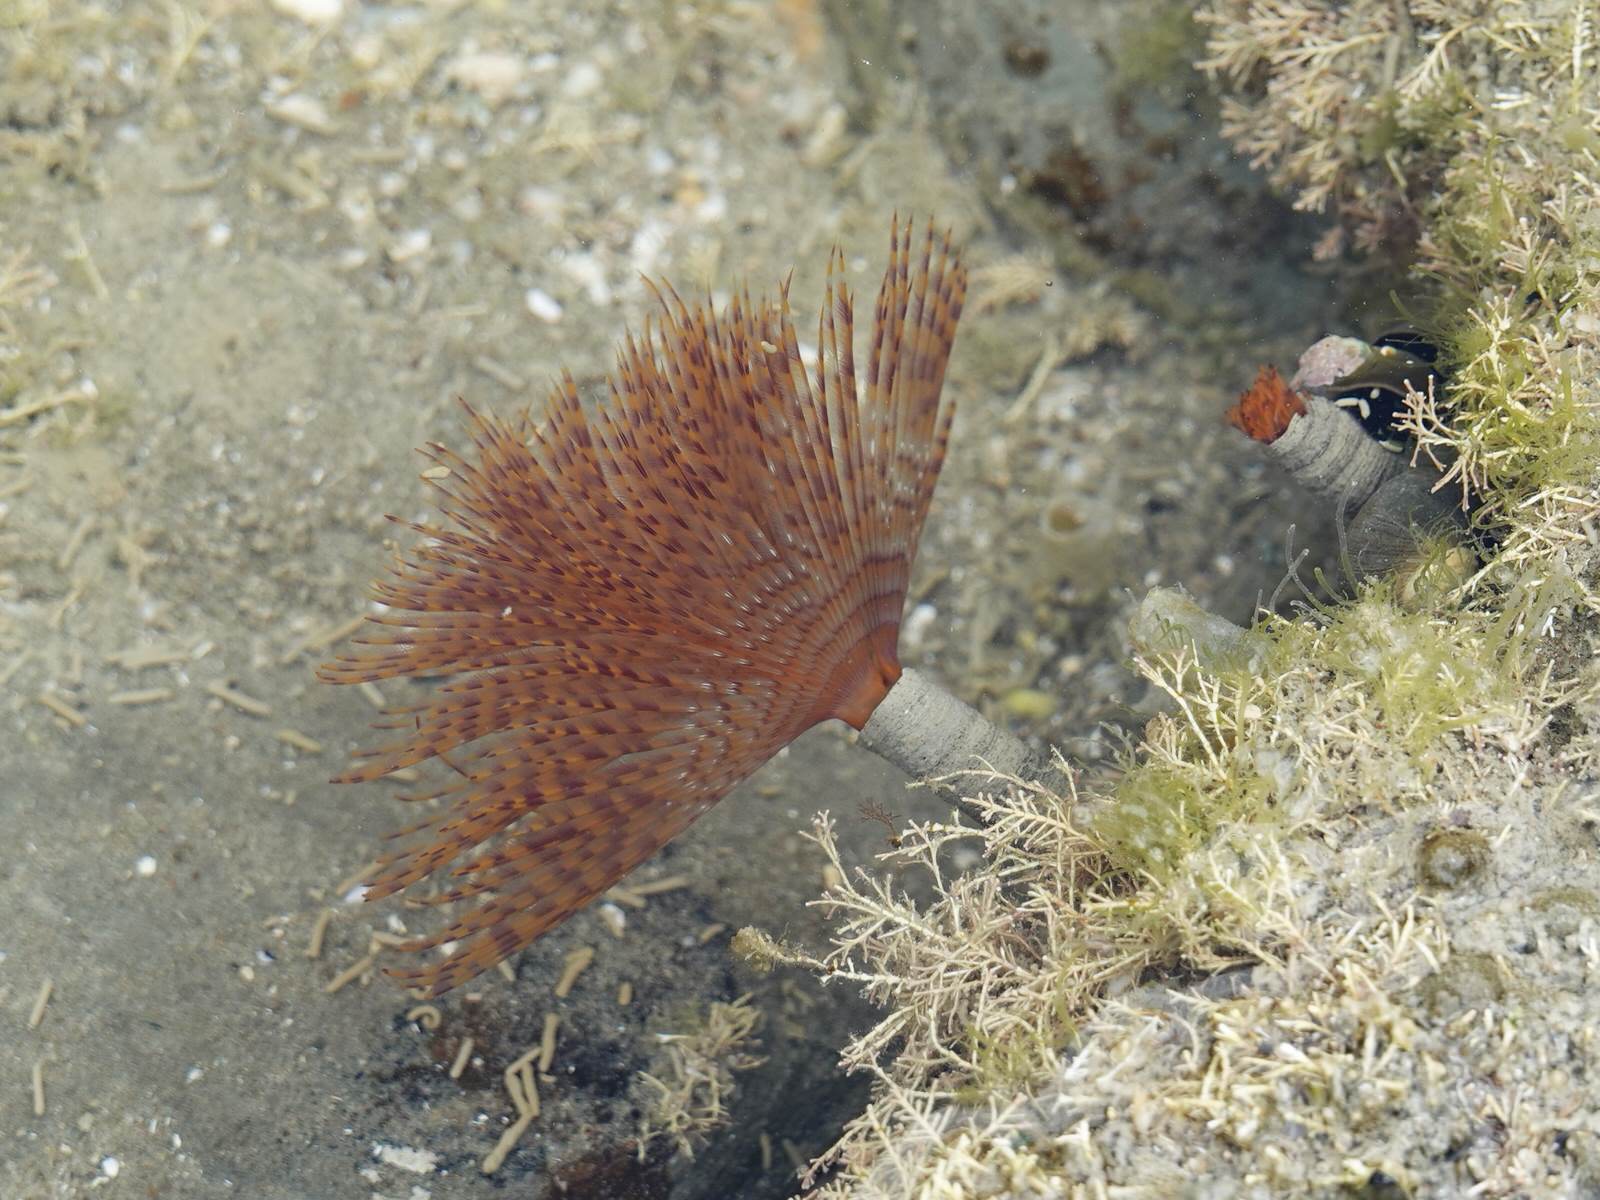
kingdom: Animalia
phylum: Annelida
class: Polychaeta
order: Sabellida
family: Sabellidae
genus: Sabella
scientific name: Sabella spallanzanii
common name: Feather duster worm
